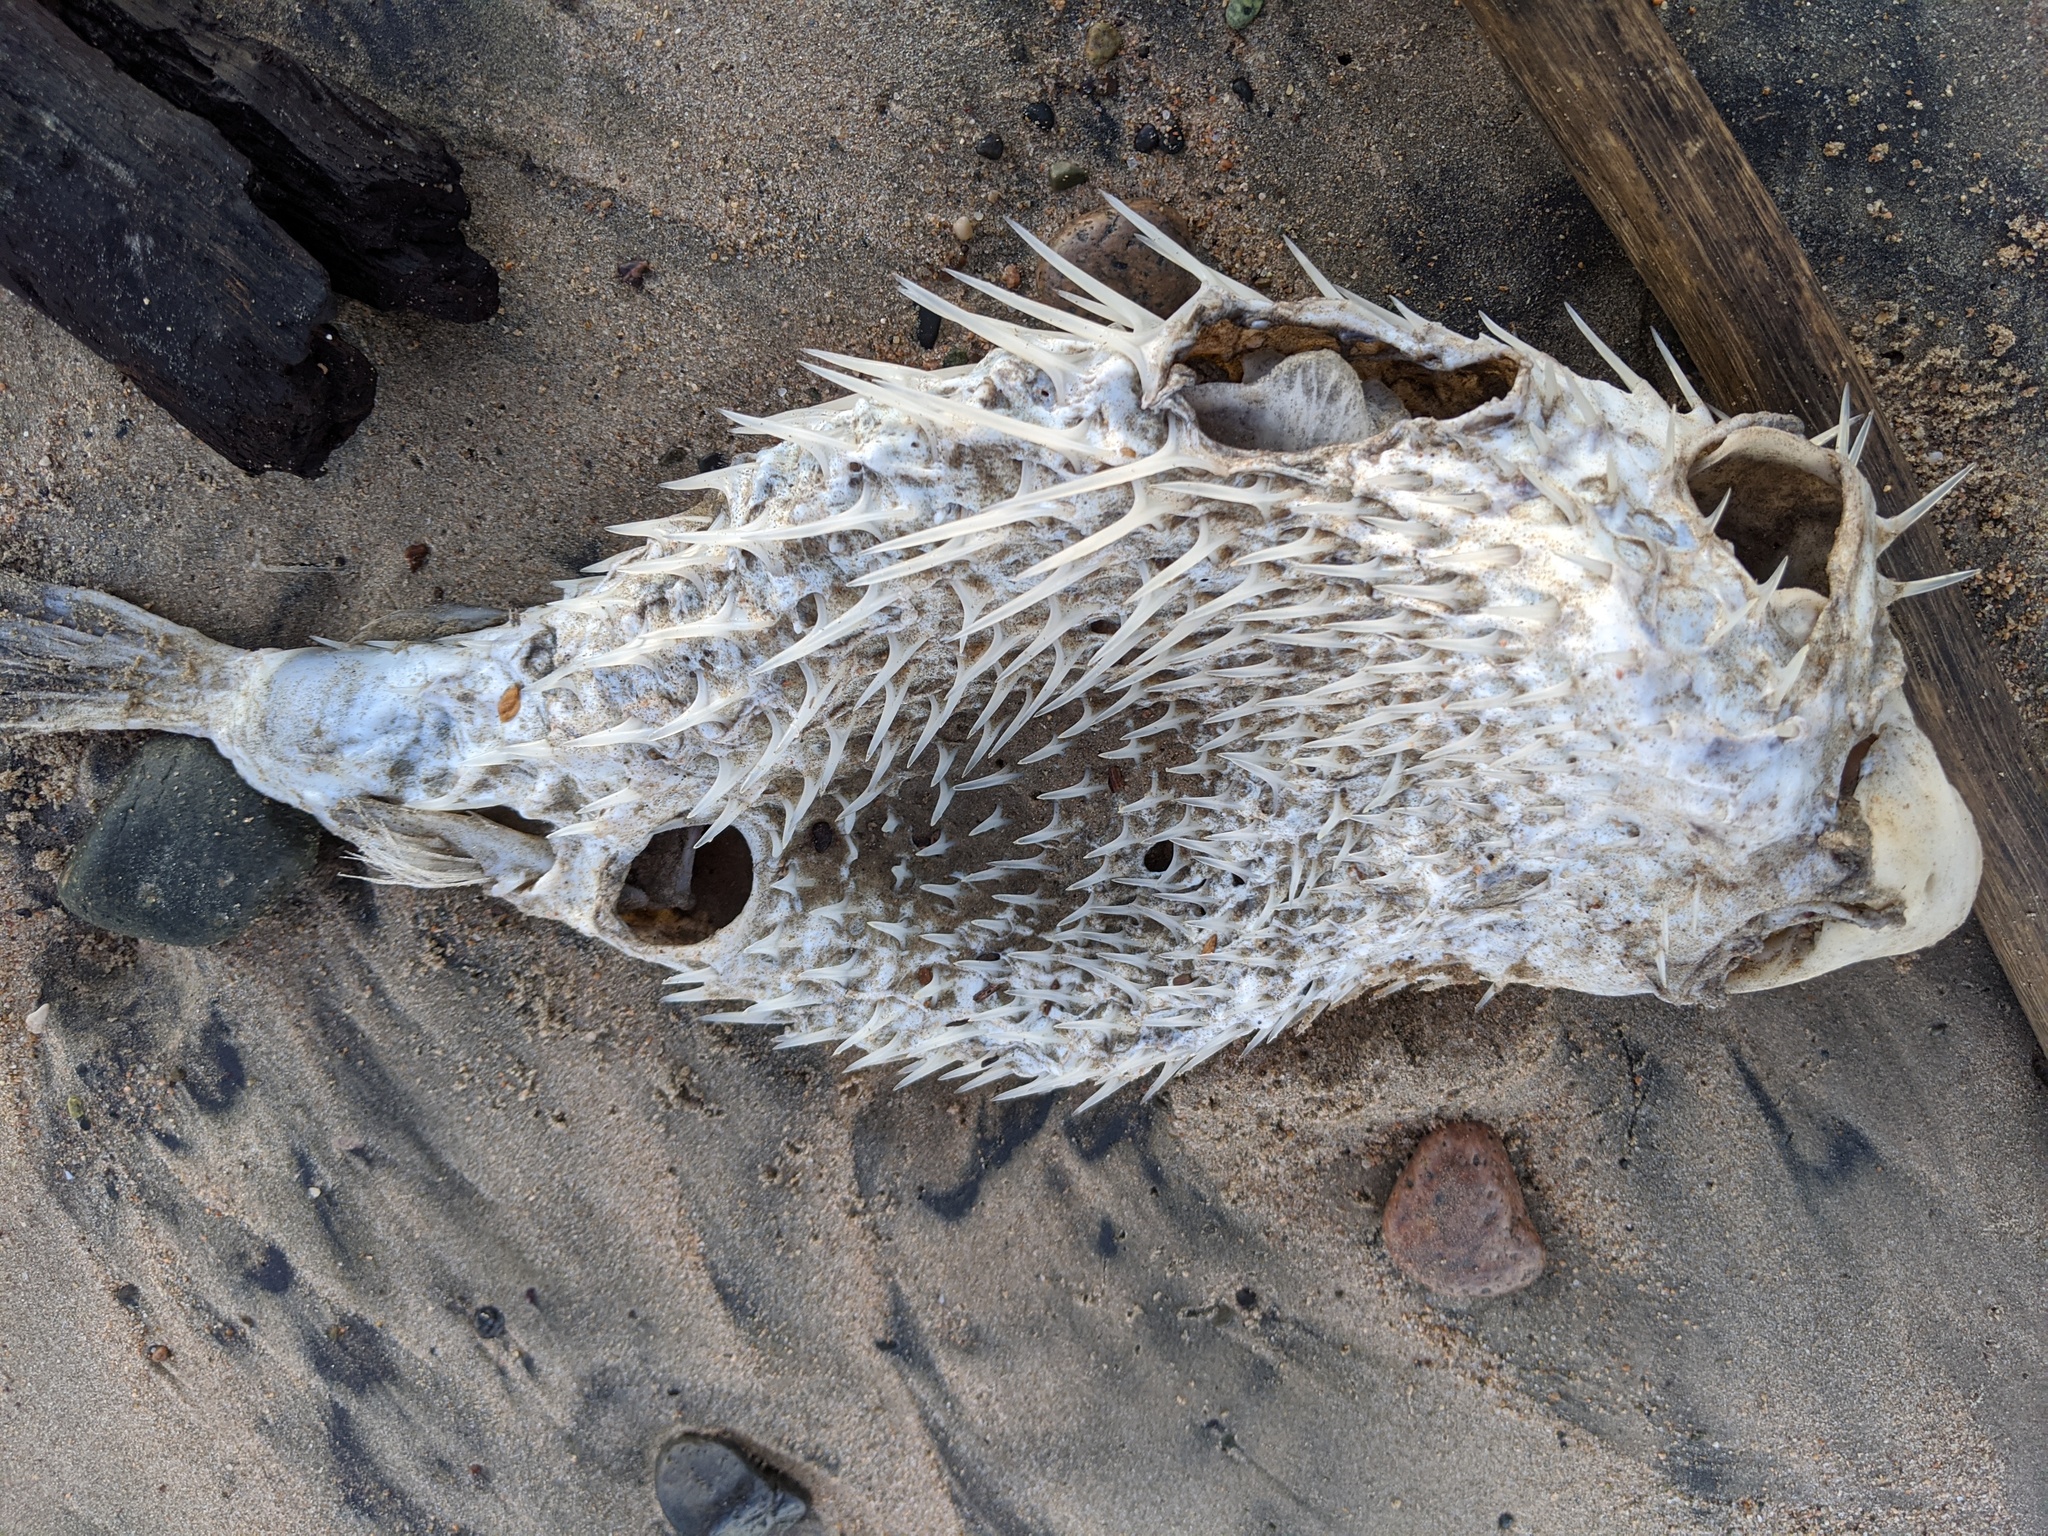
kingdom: Animalia
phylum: Chordata
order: Tetraodontiformes
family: Diodontidae
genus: Diodon
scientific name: Diodon holocanthus
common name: Balloonfish
